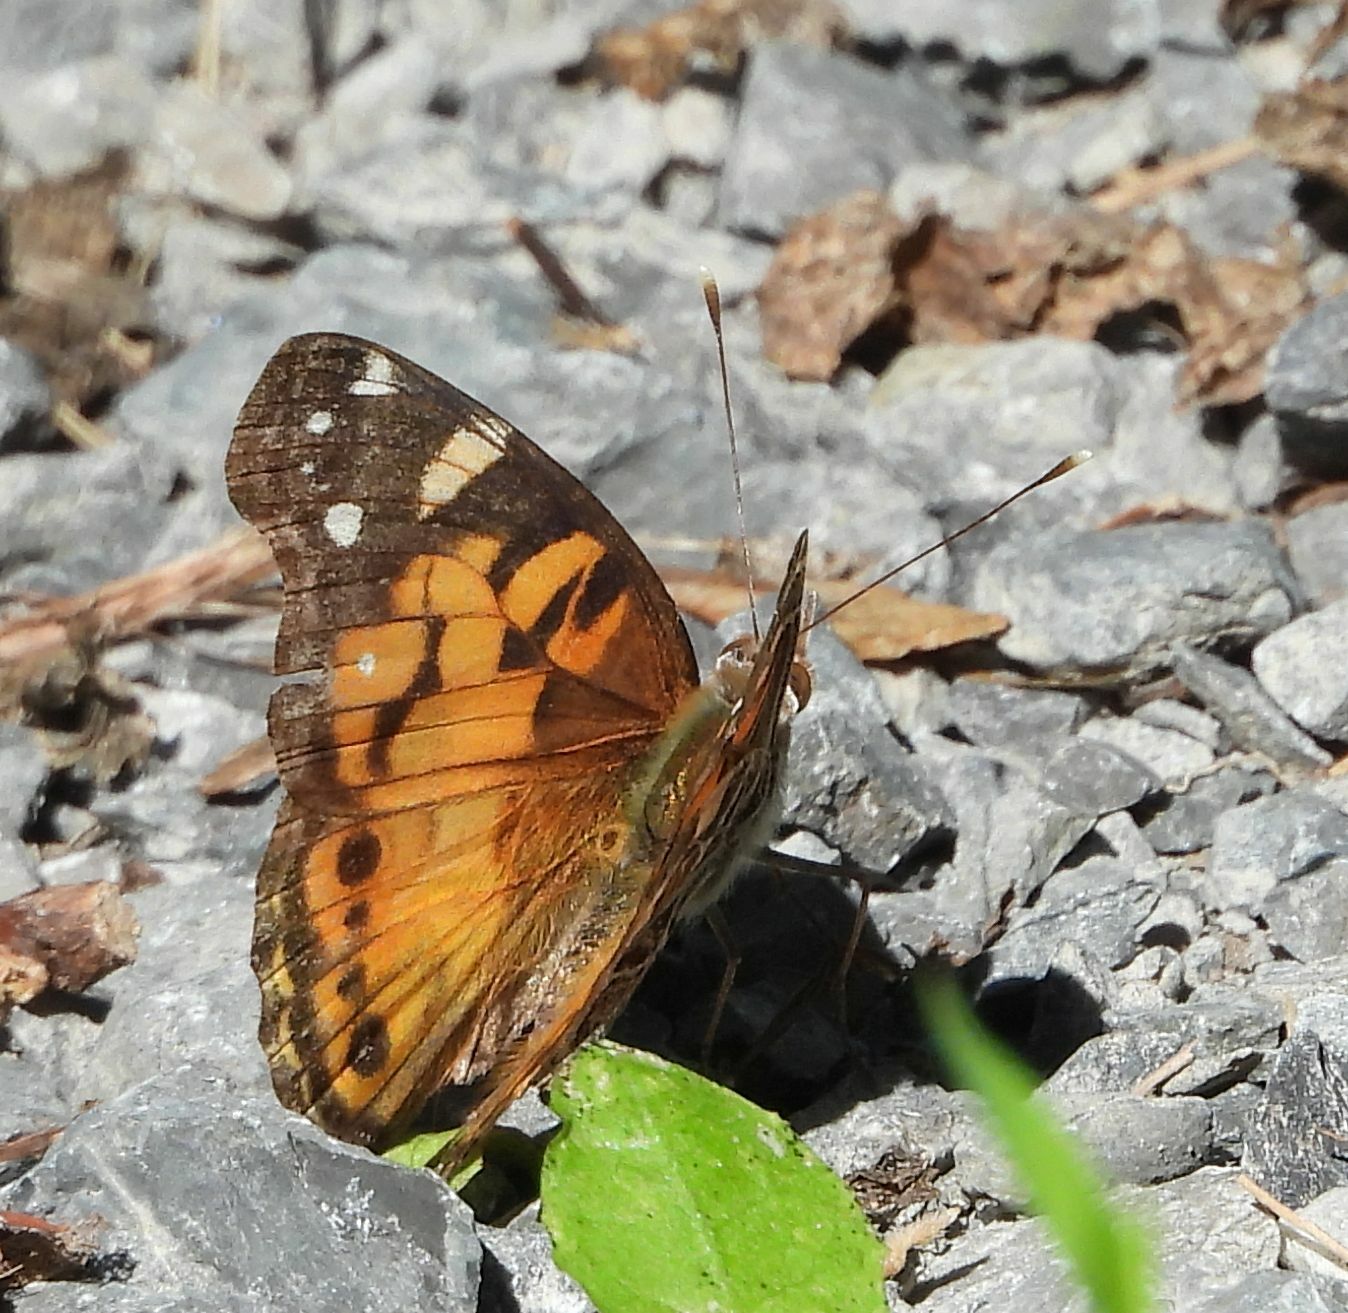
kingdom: Animalia
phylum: Arthropoda
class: Insecta
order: Lepidoptera
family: Nymphalidae
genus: Vanessa
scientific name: Vanessa virginiensis
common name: American lady
